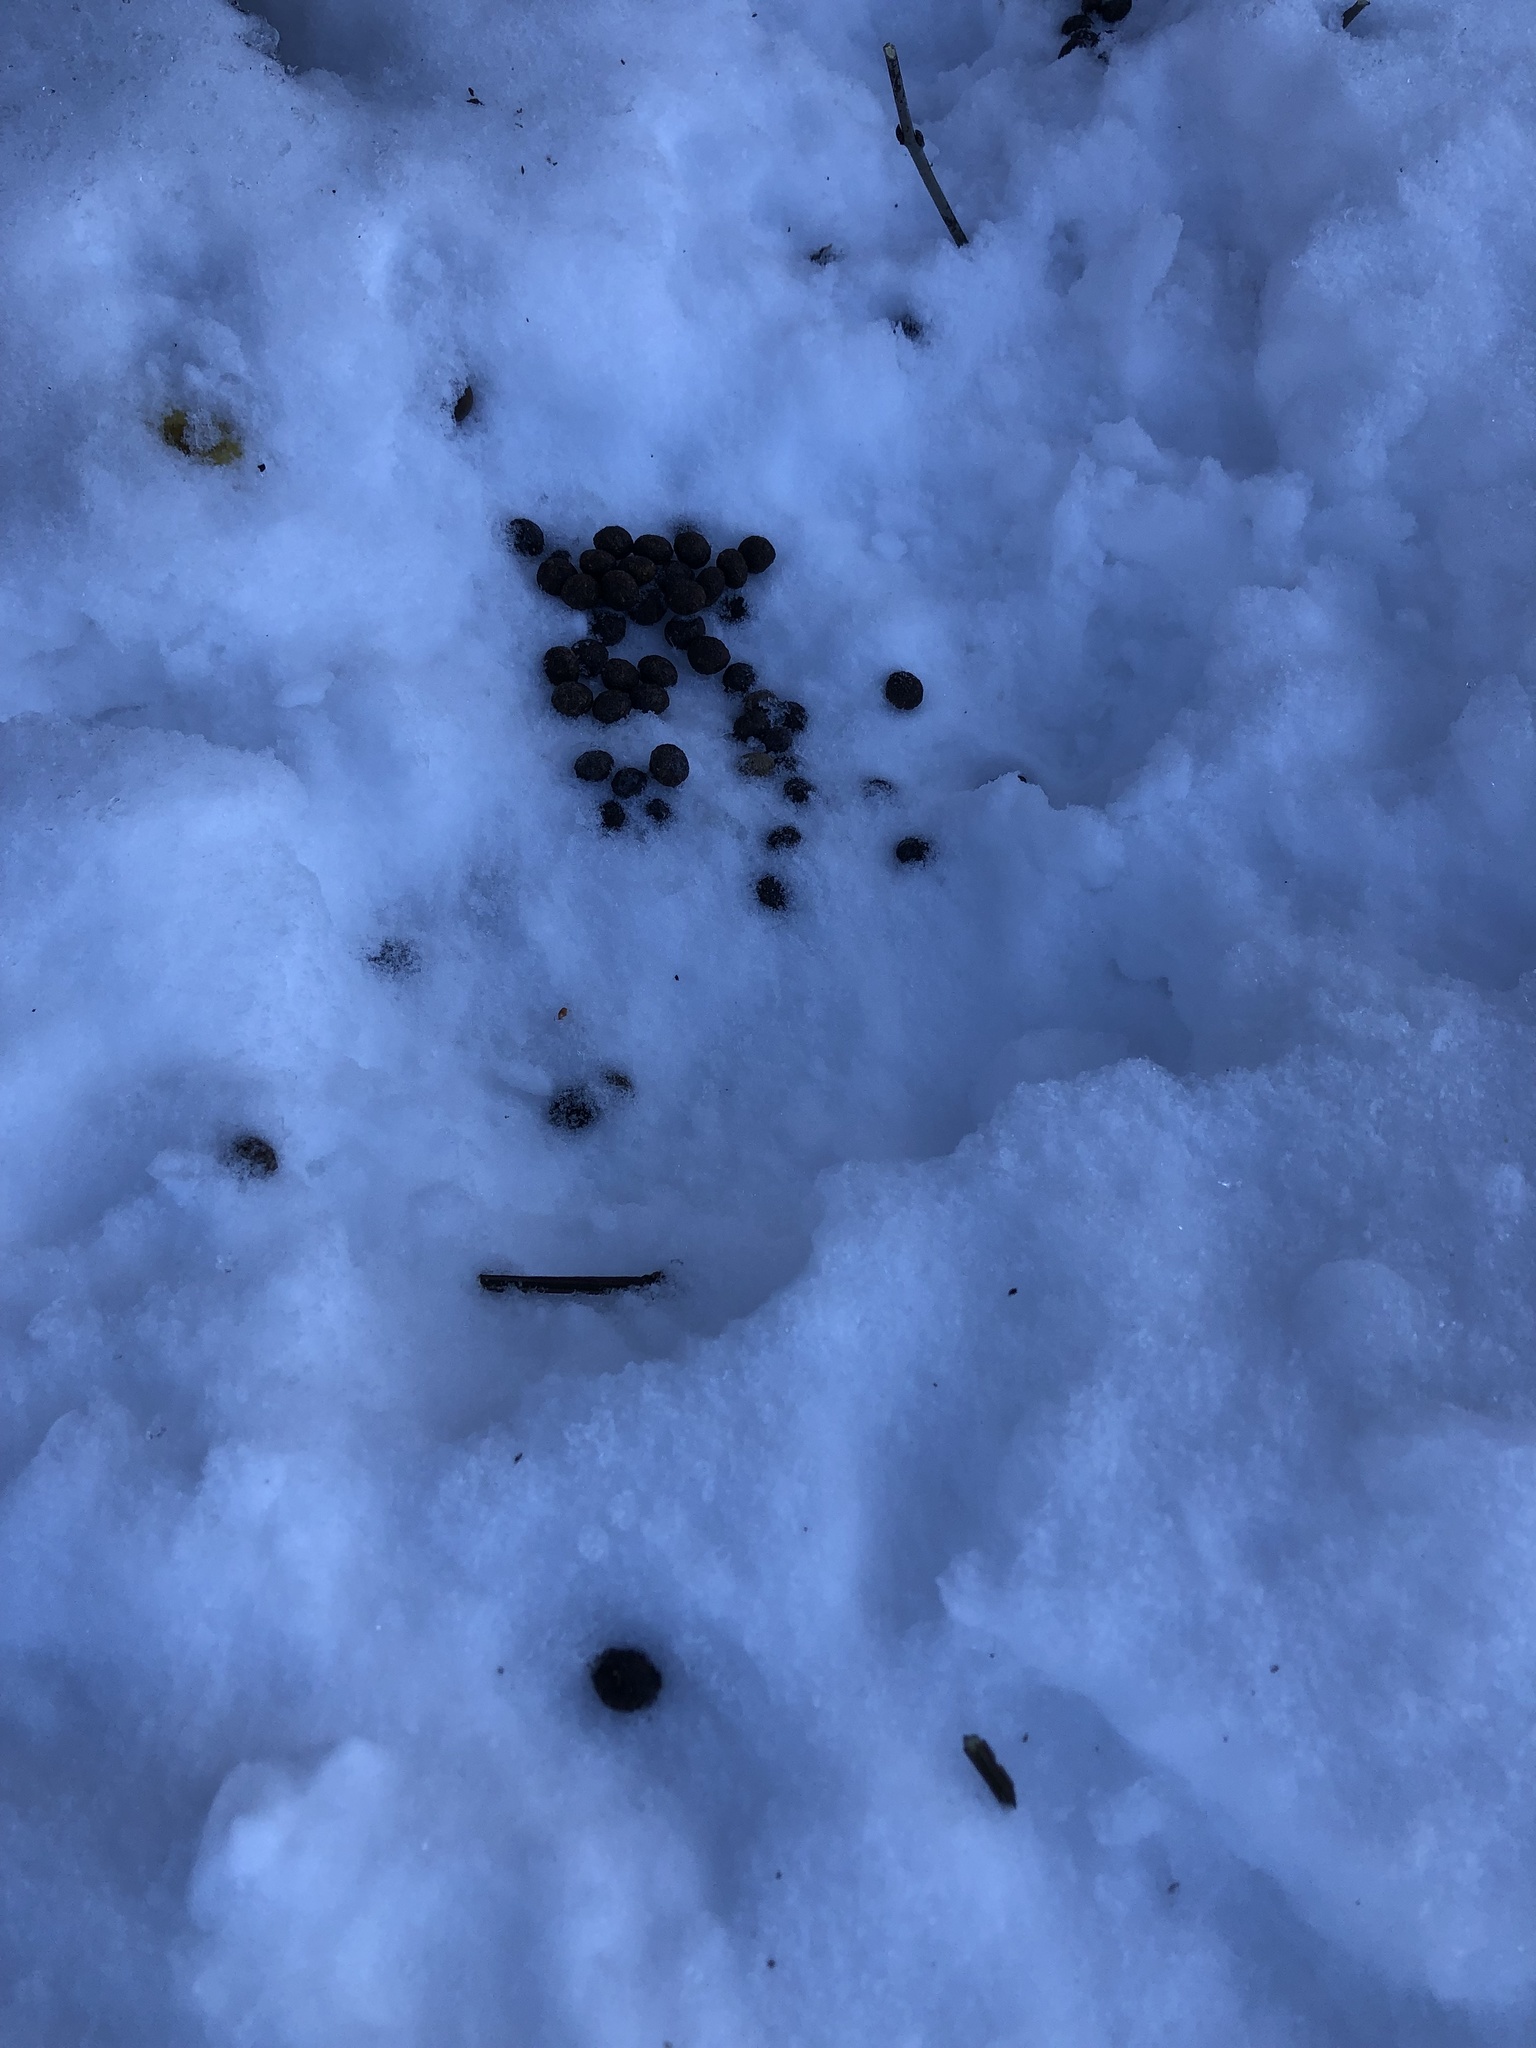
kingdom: Animalia
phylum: Chordata
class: Mammalia
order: Lagomorpha
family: Leporidae
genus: Sylvilagus
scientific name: Sylvilagus floridanus
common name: Eastern cottontail
